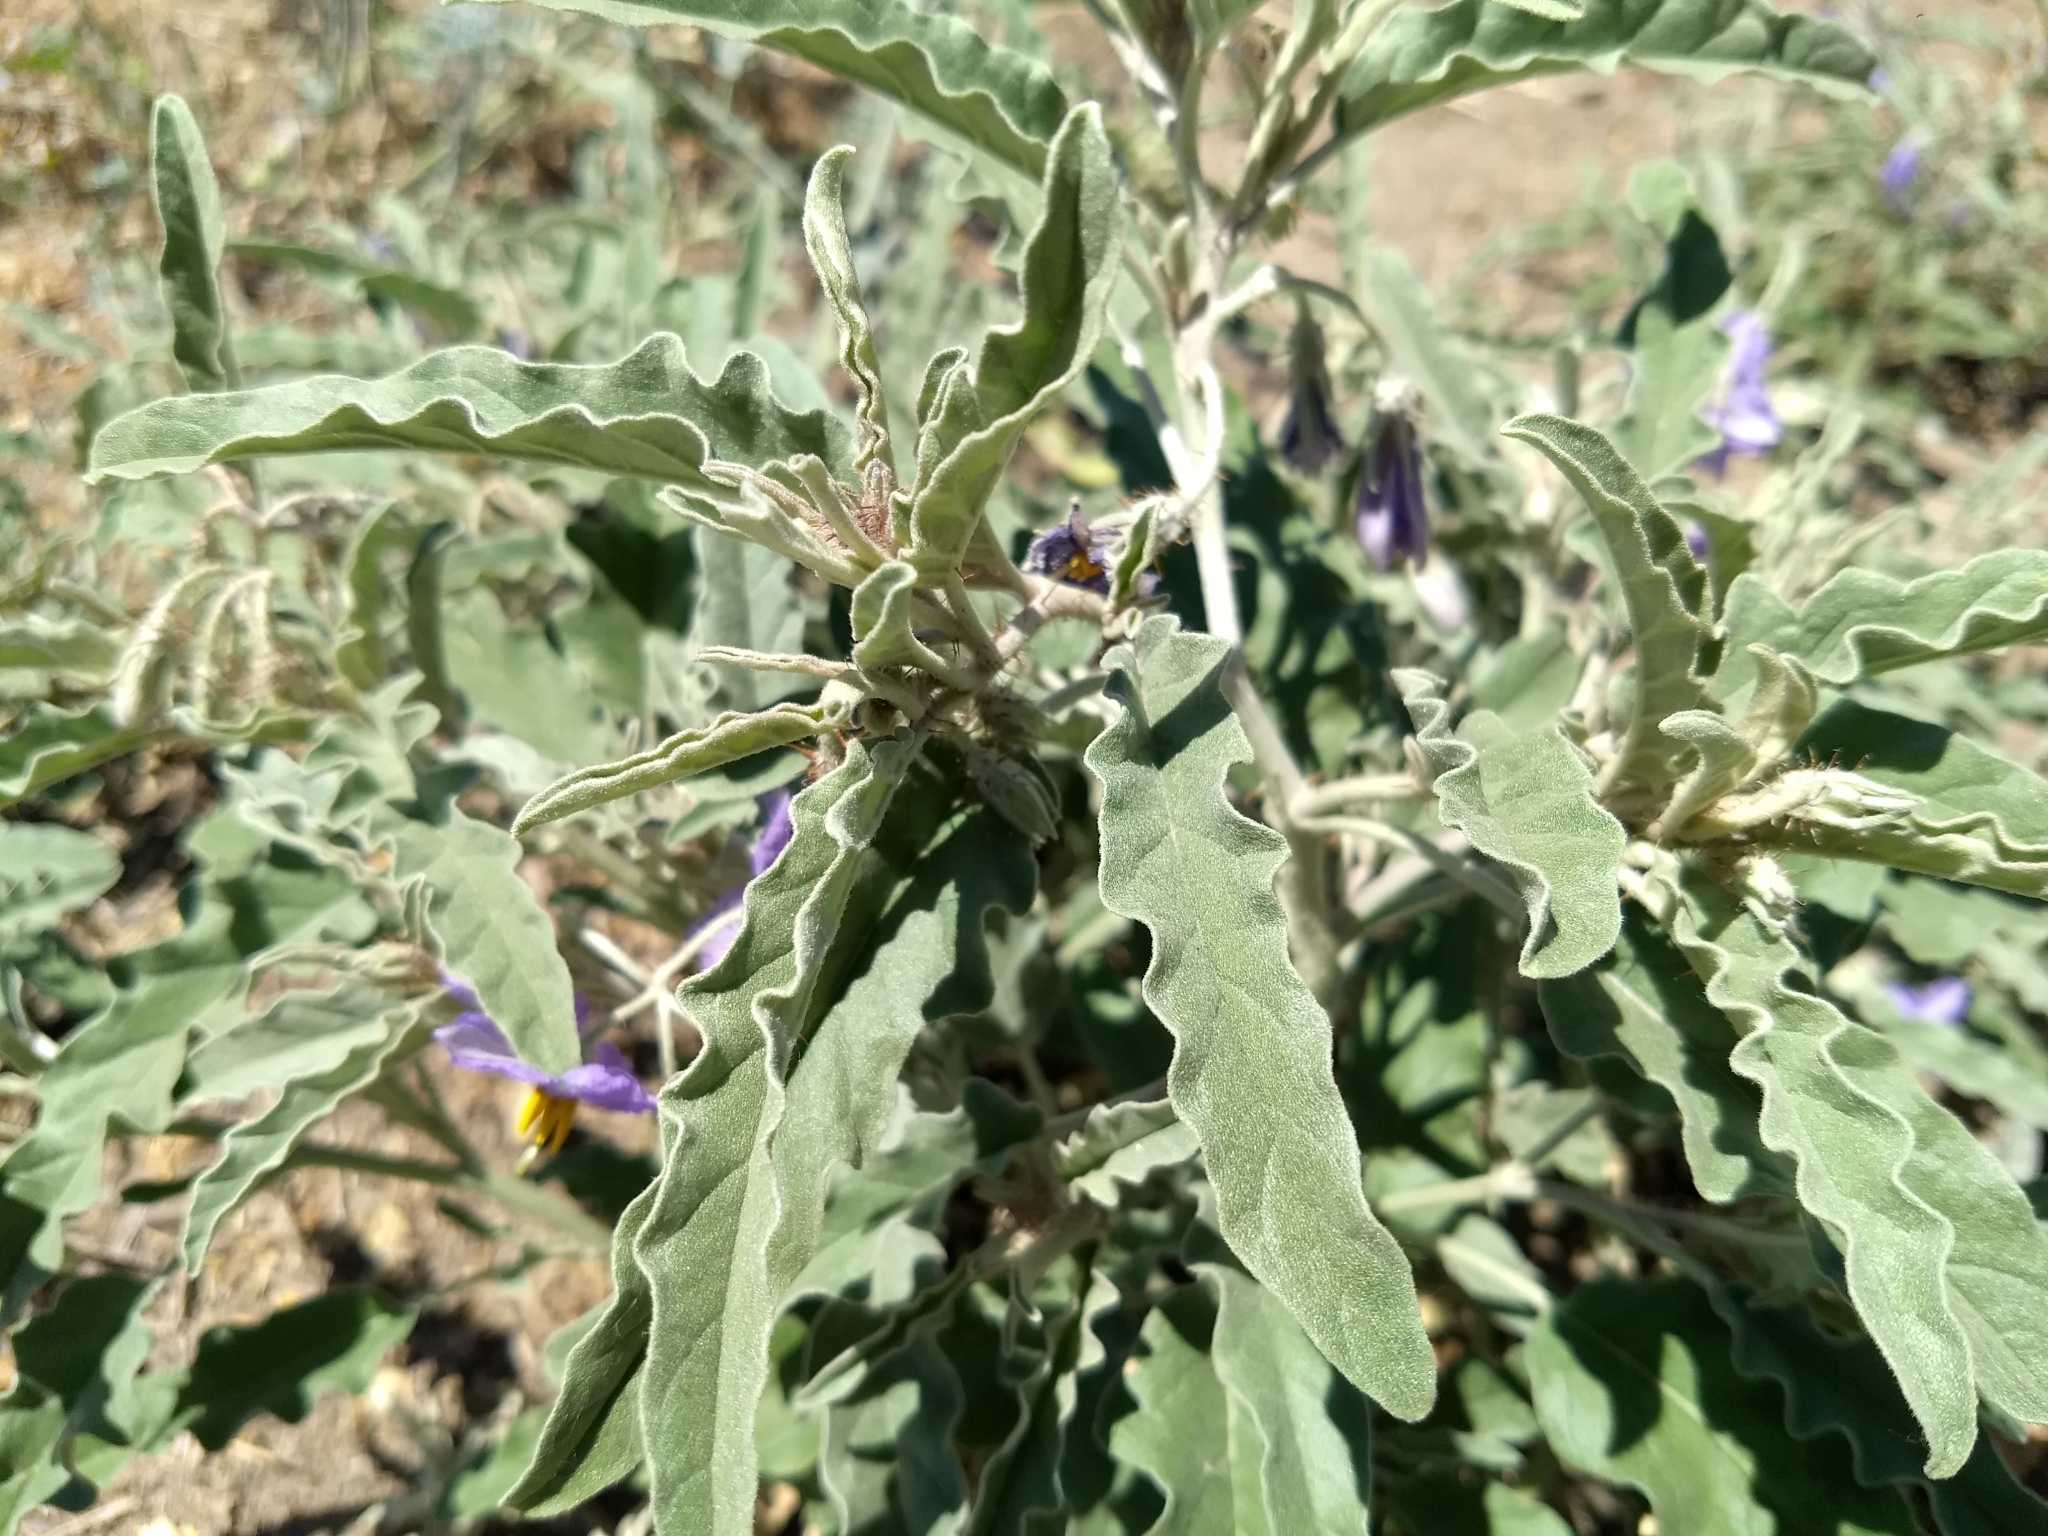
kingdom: Plantae
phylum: Tracheophyta
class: Magnoliopsida
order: Solanales
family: Solanaceae
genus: Solanum
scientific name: Solanum elaeagnifolium
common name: Silverleaf nightshade
